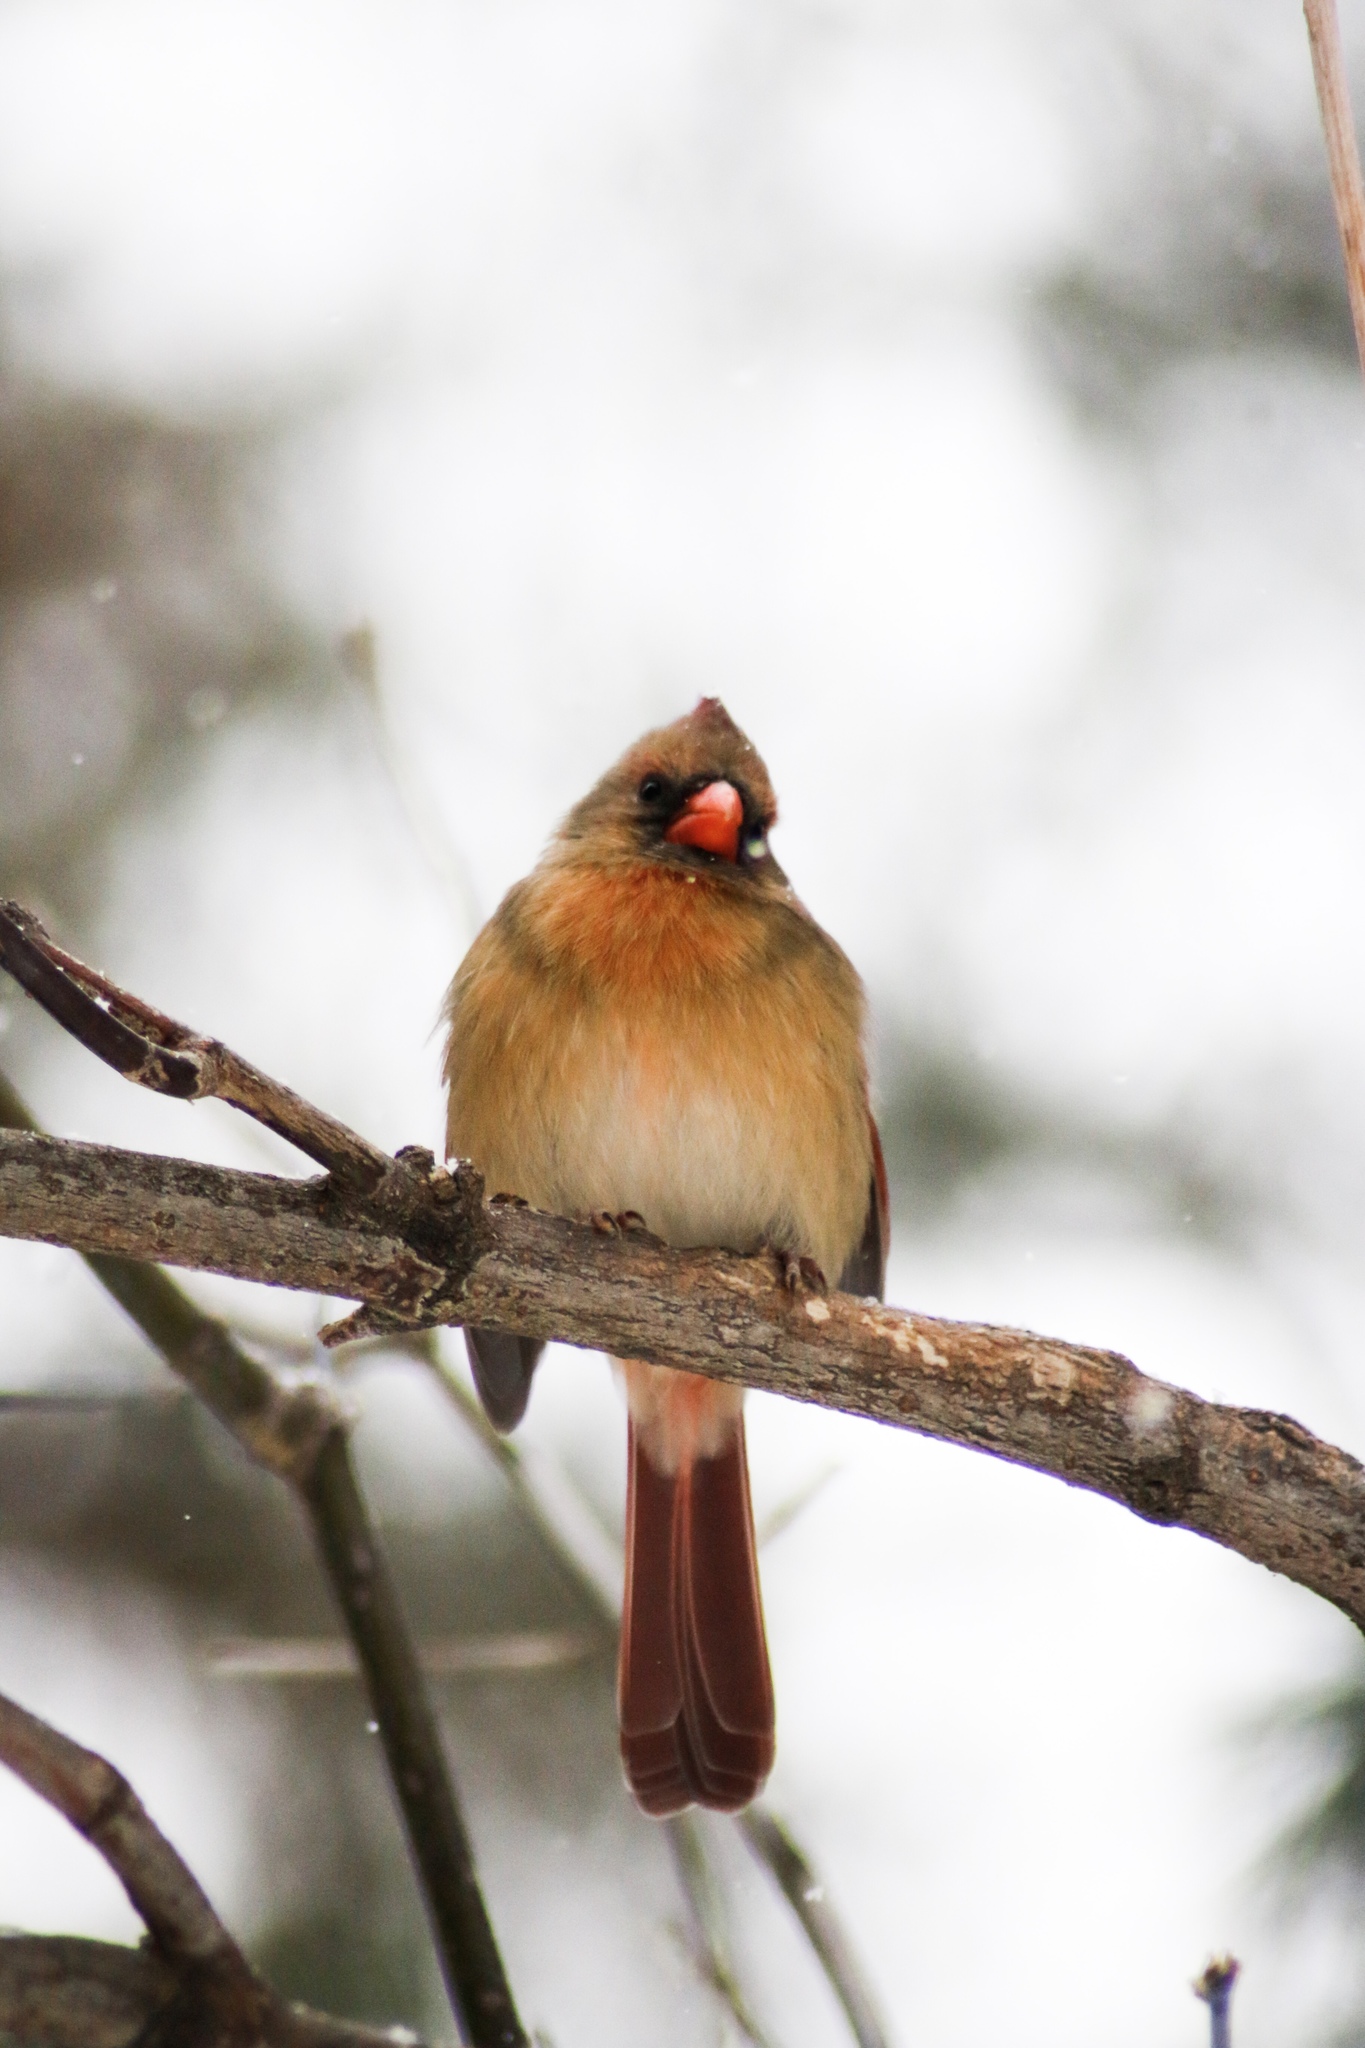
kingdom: Animalia
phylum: Chordata
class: Aves
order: Passeriformes
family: Cardinalidae
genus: Cardinalis
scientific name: Cardinalis cardinalis
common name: Northern cardinal
